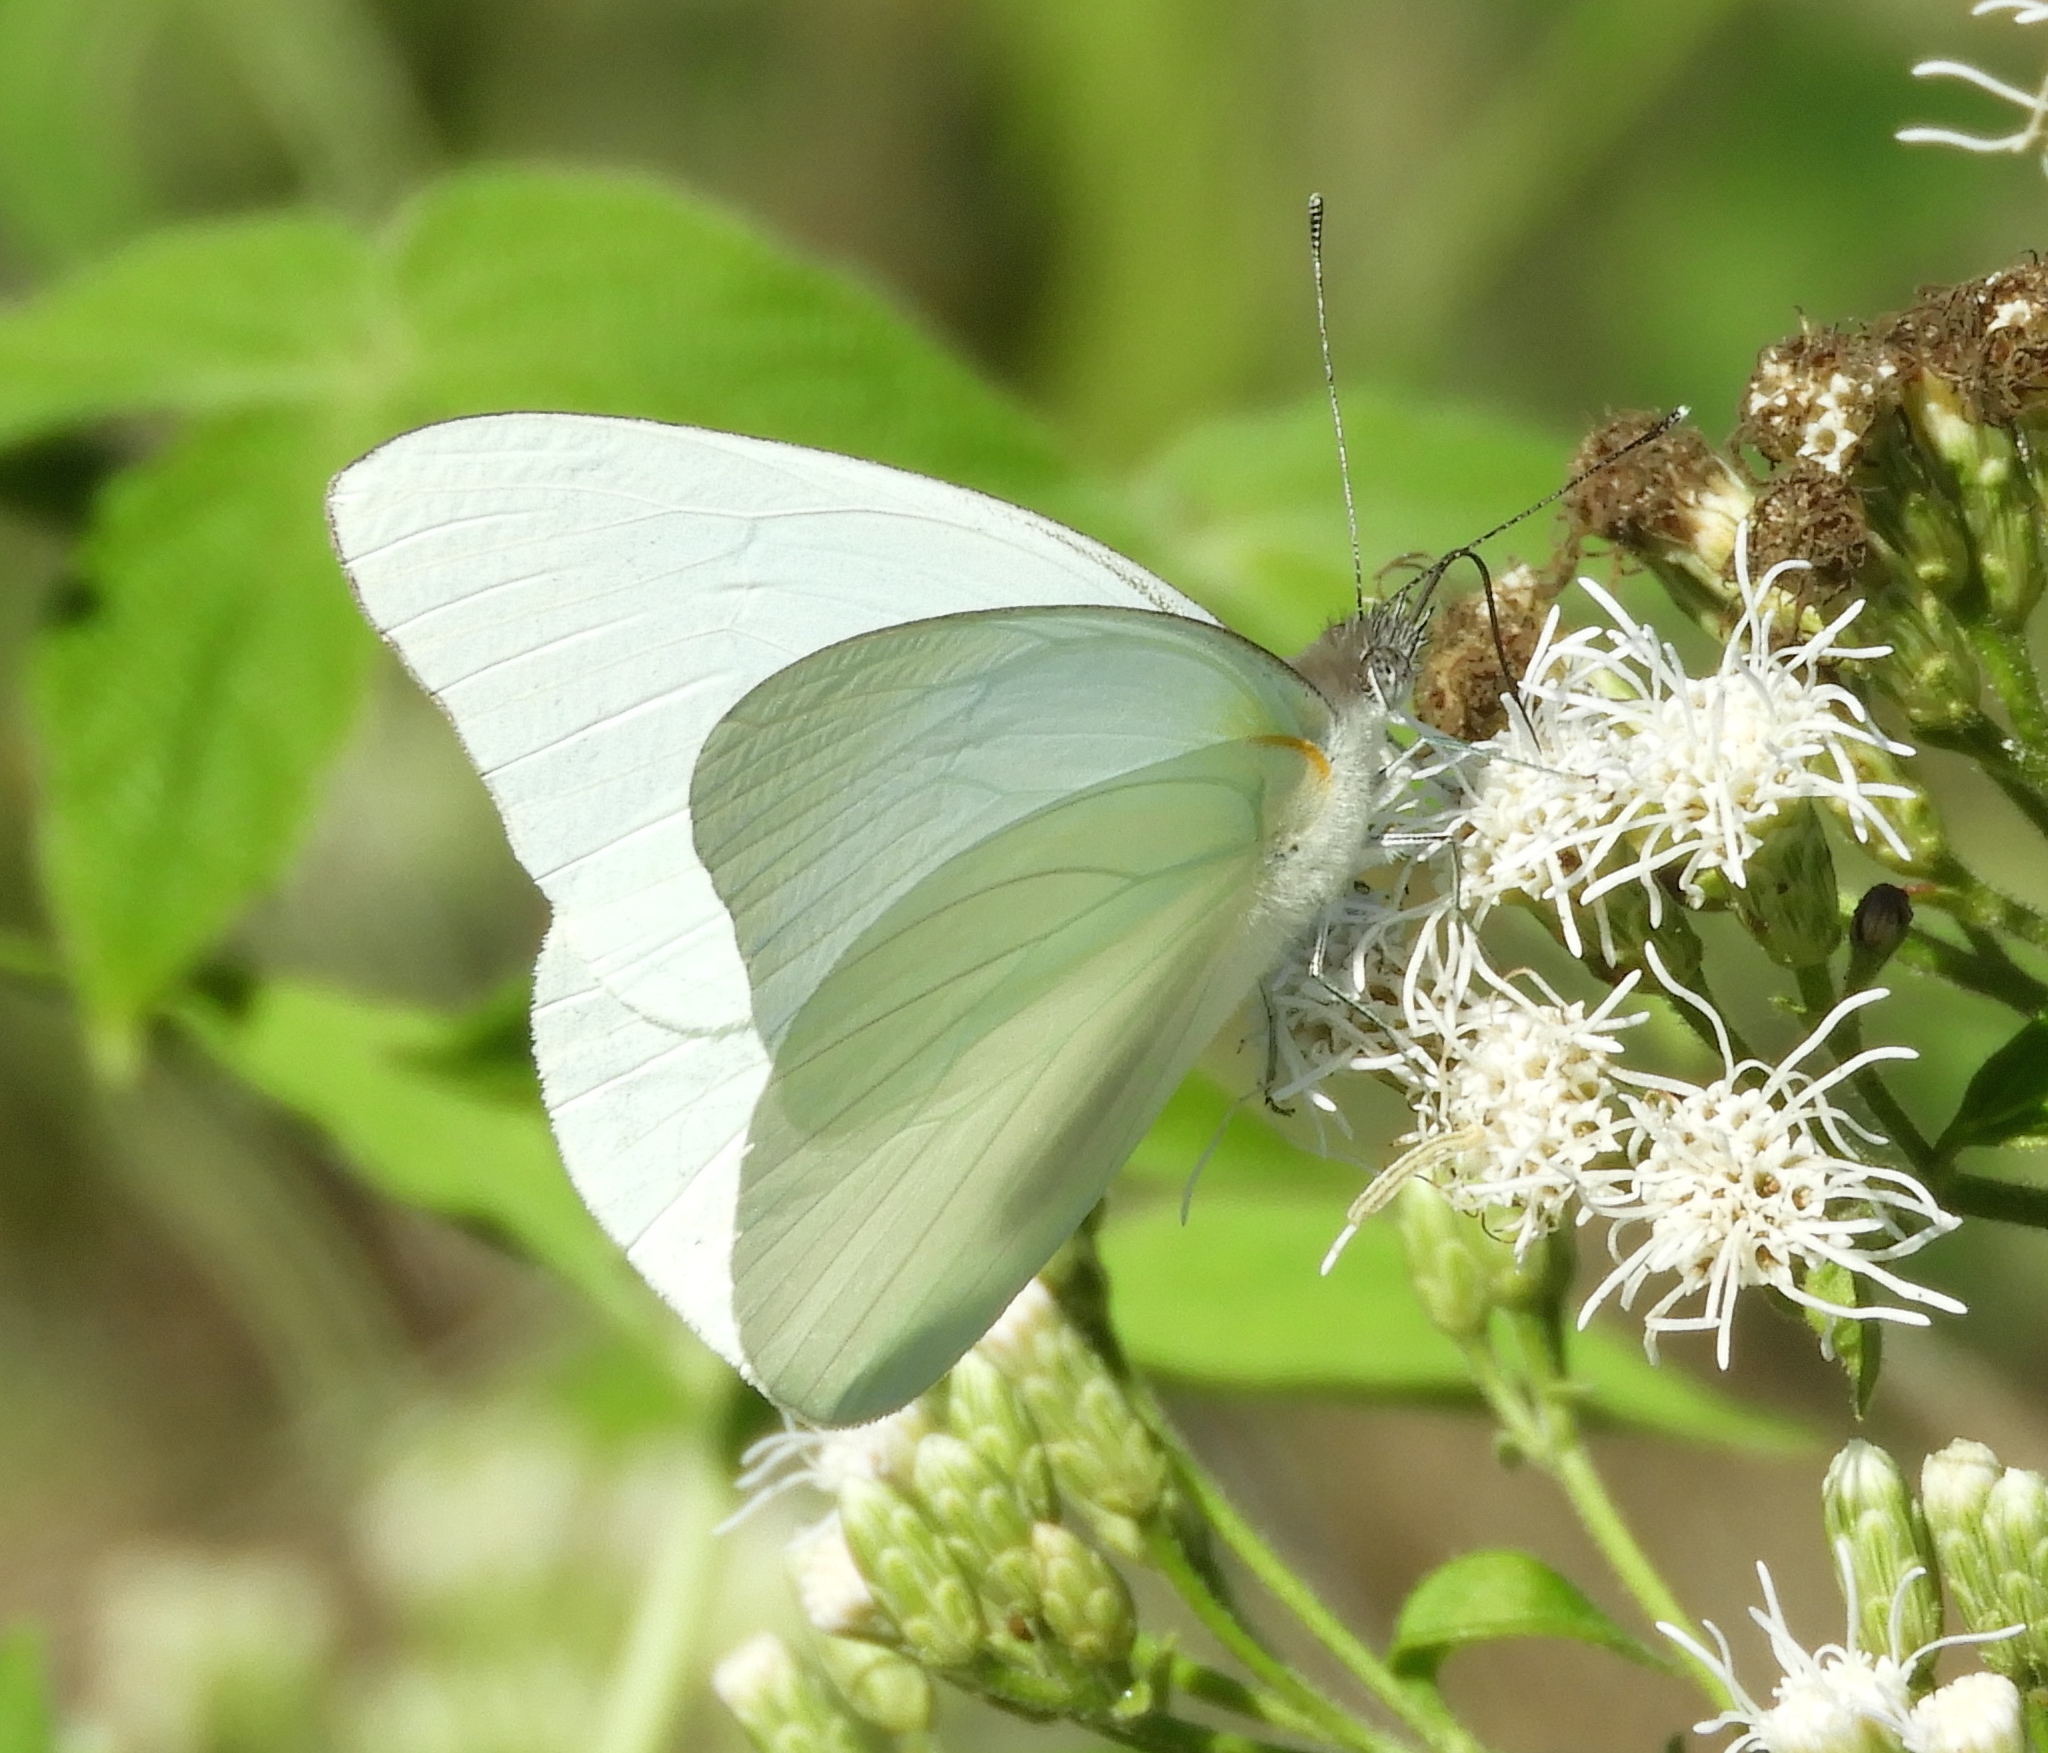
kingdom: Animalia
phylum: Arthropoda
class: Insecta
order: Lepidoptera
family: Pieridae
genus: Glutophrissa
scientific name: Glutophrissa drusilla
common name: Florida white
